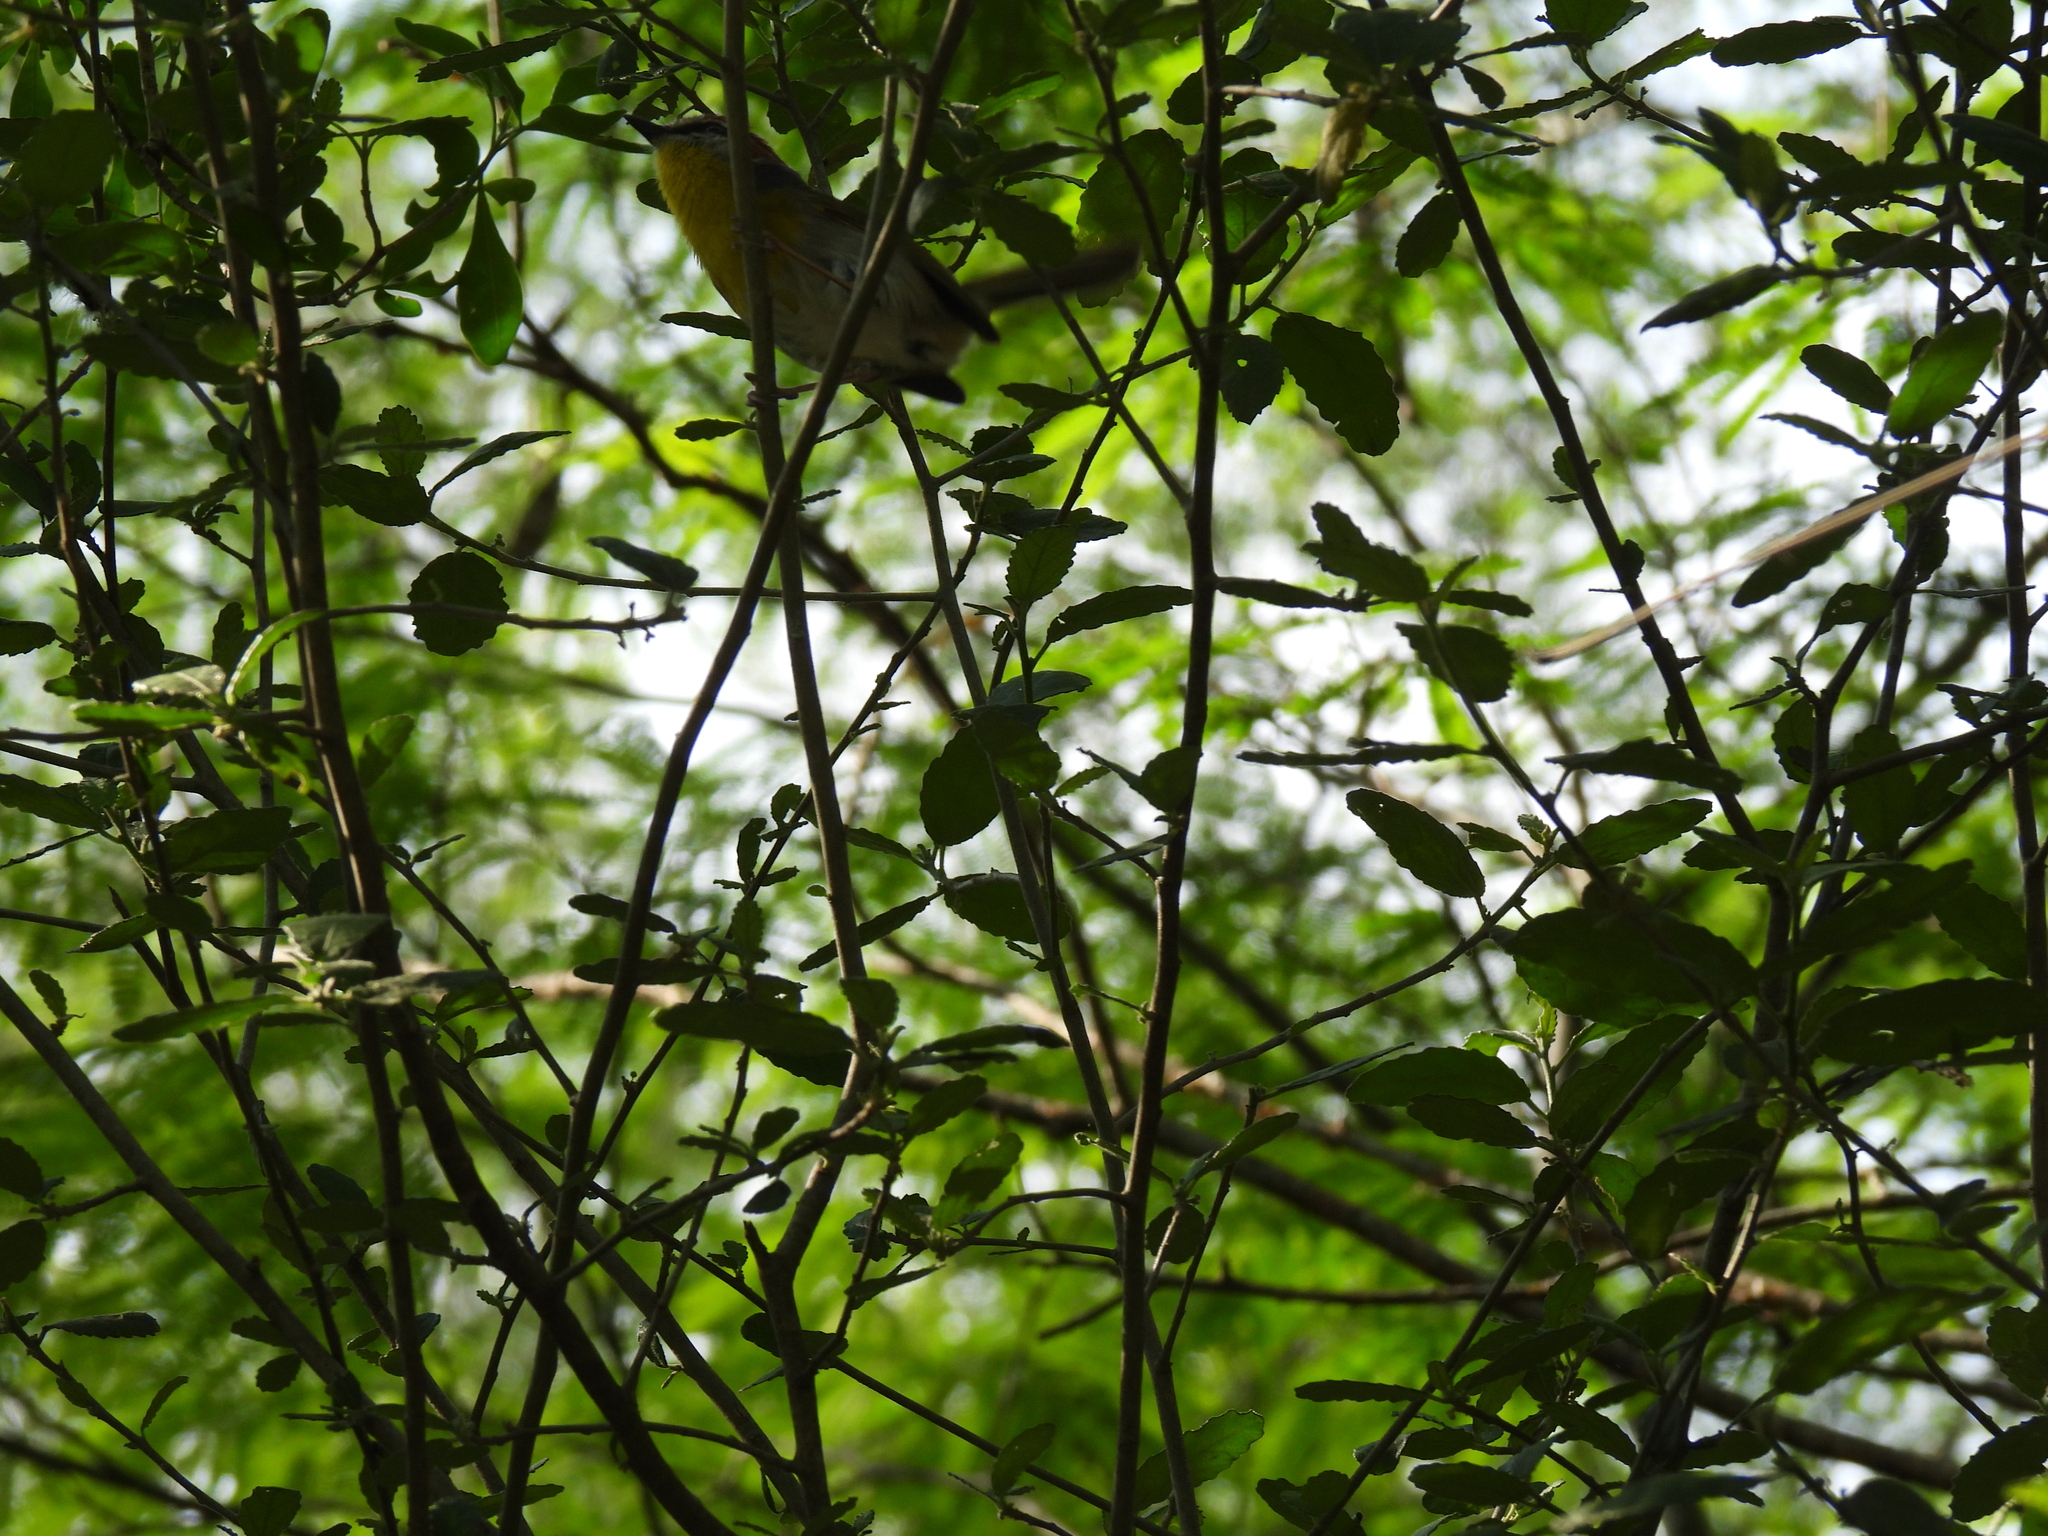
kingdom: Animalia
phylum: Chordata
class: Aves
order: Passeriformes
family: Parulidae
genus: Basileuterus
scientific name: Basileuterus rufifrons
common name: Rufous-capped warbler
